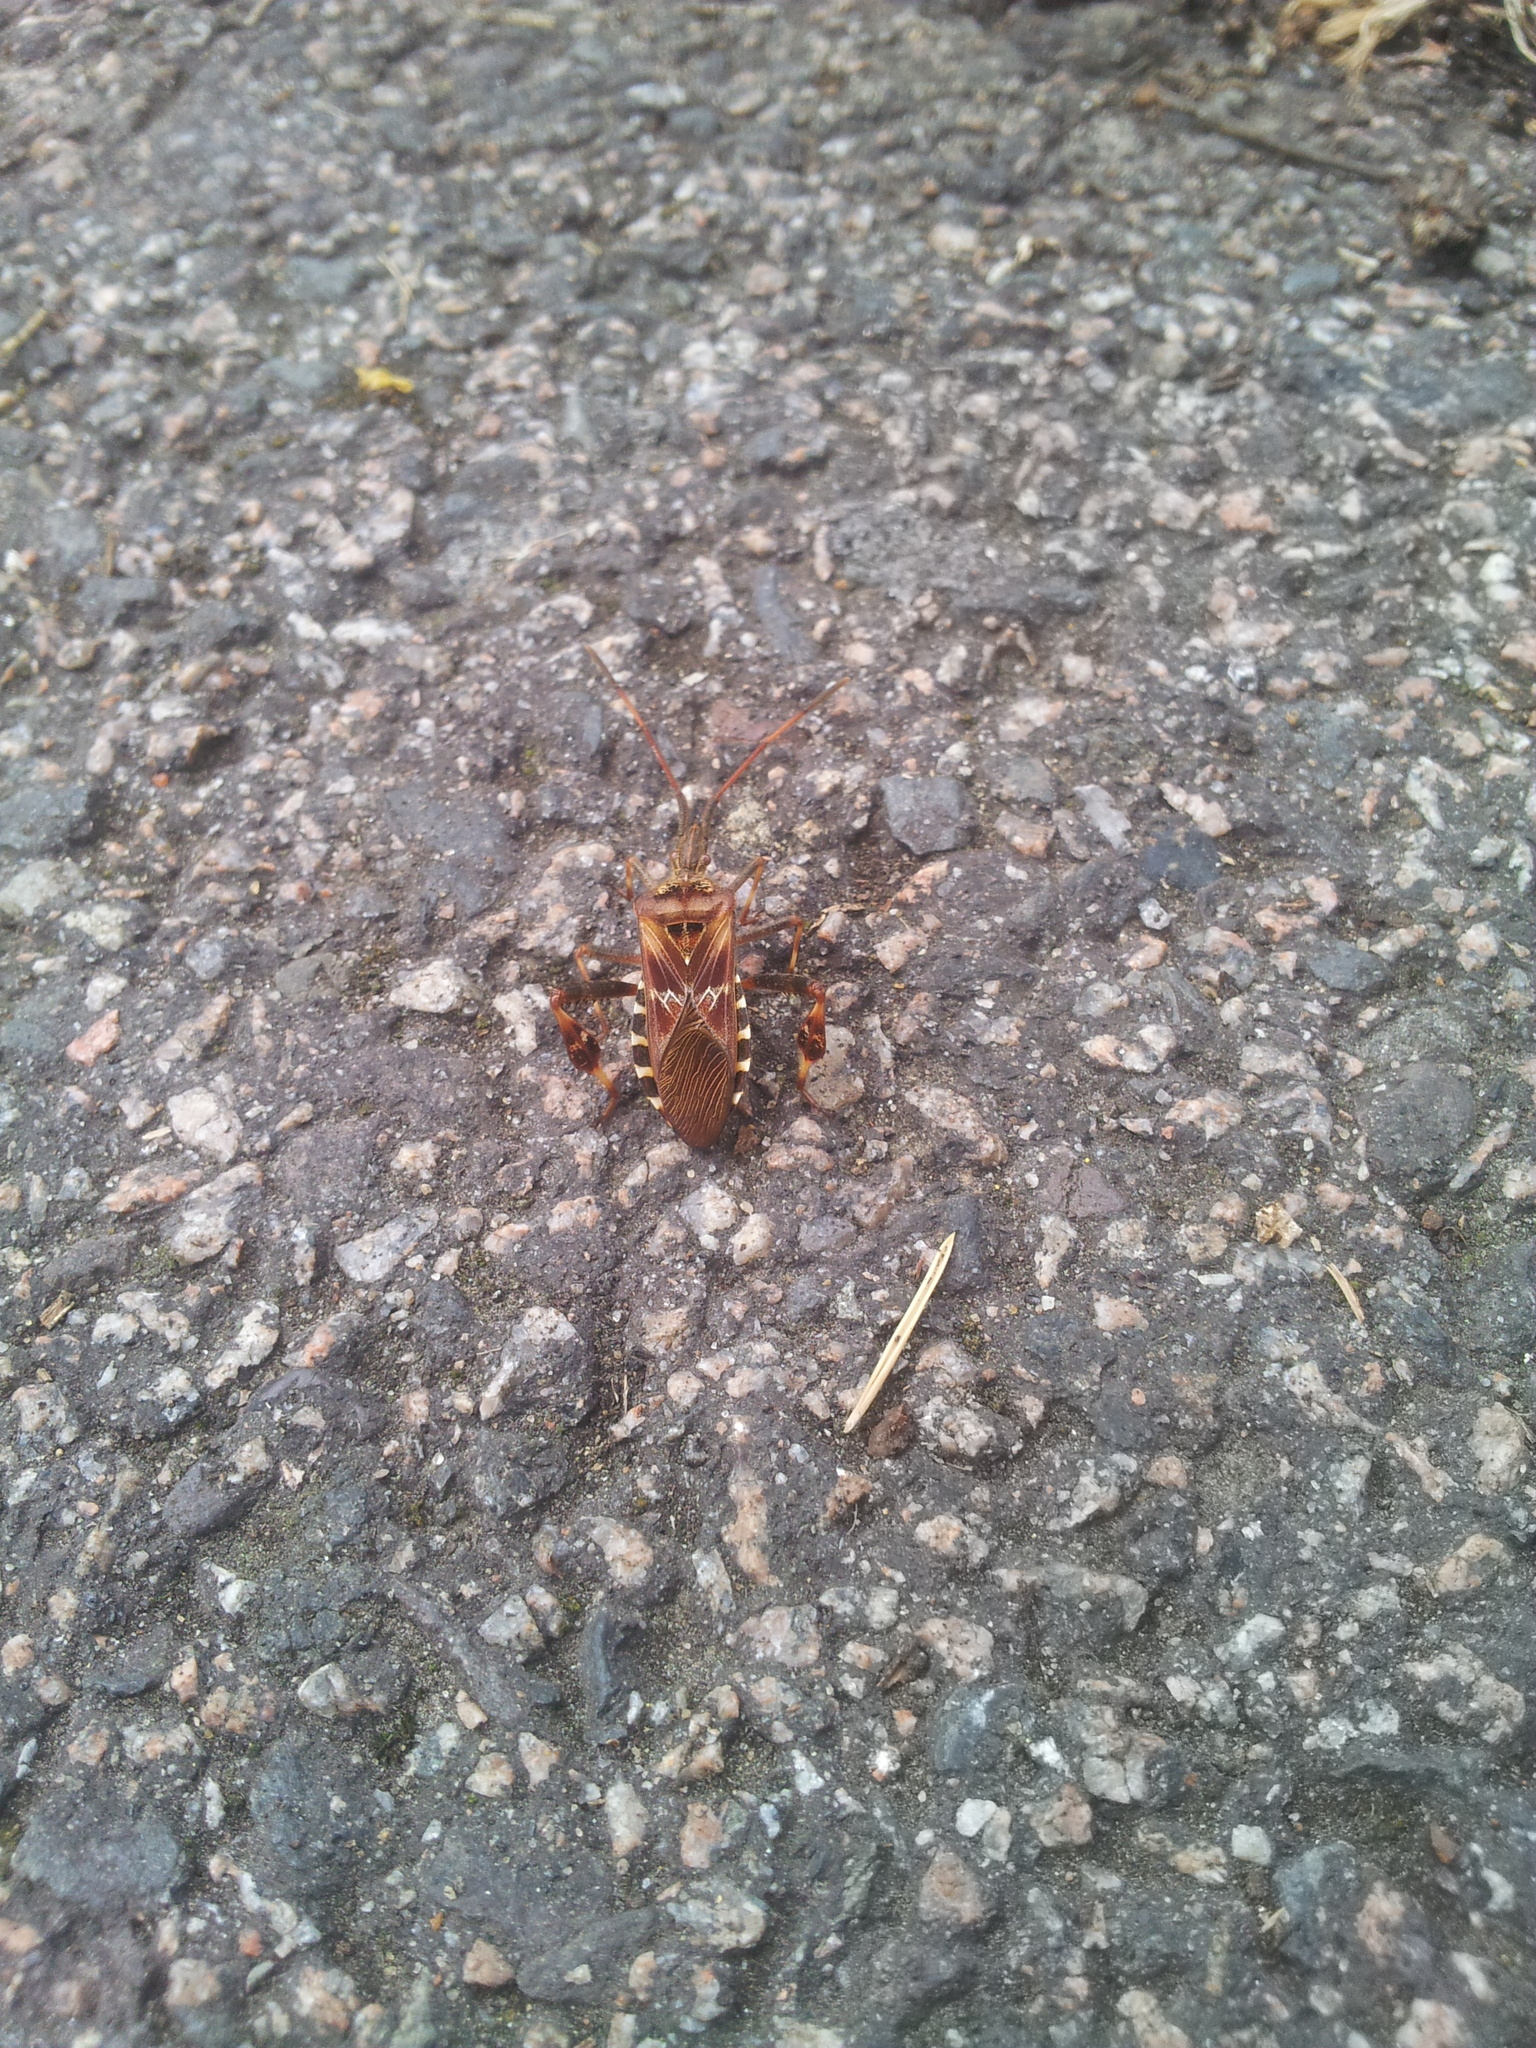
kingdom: Animalia
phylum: Arthropoda
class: Insecta
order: Hemiptera
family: Coreidae
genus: Leptoglossus
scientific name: Leptoglossus occidentalis
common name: Western conifer-seed bug
